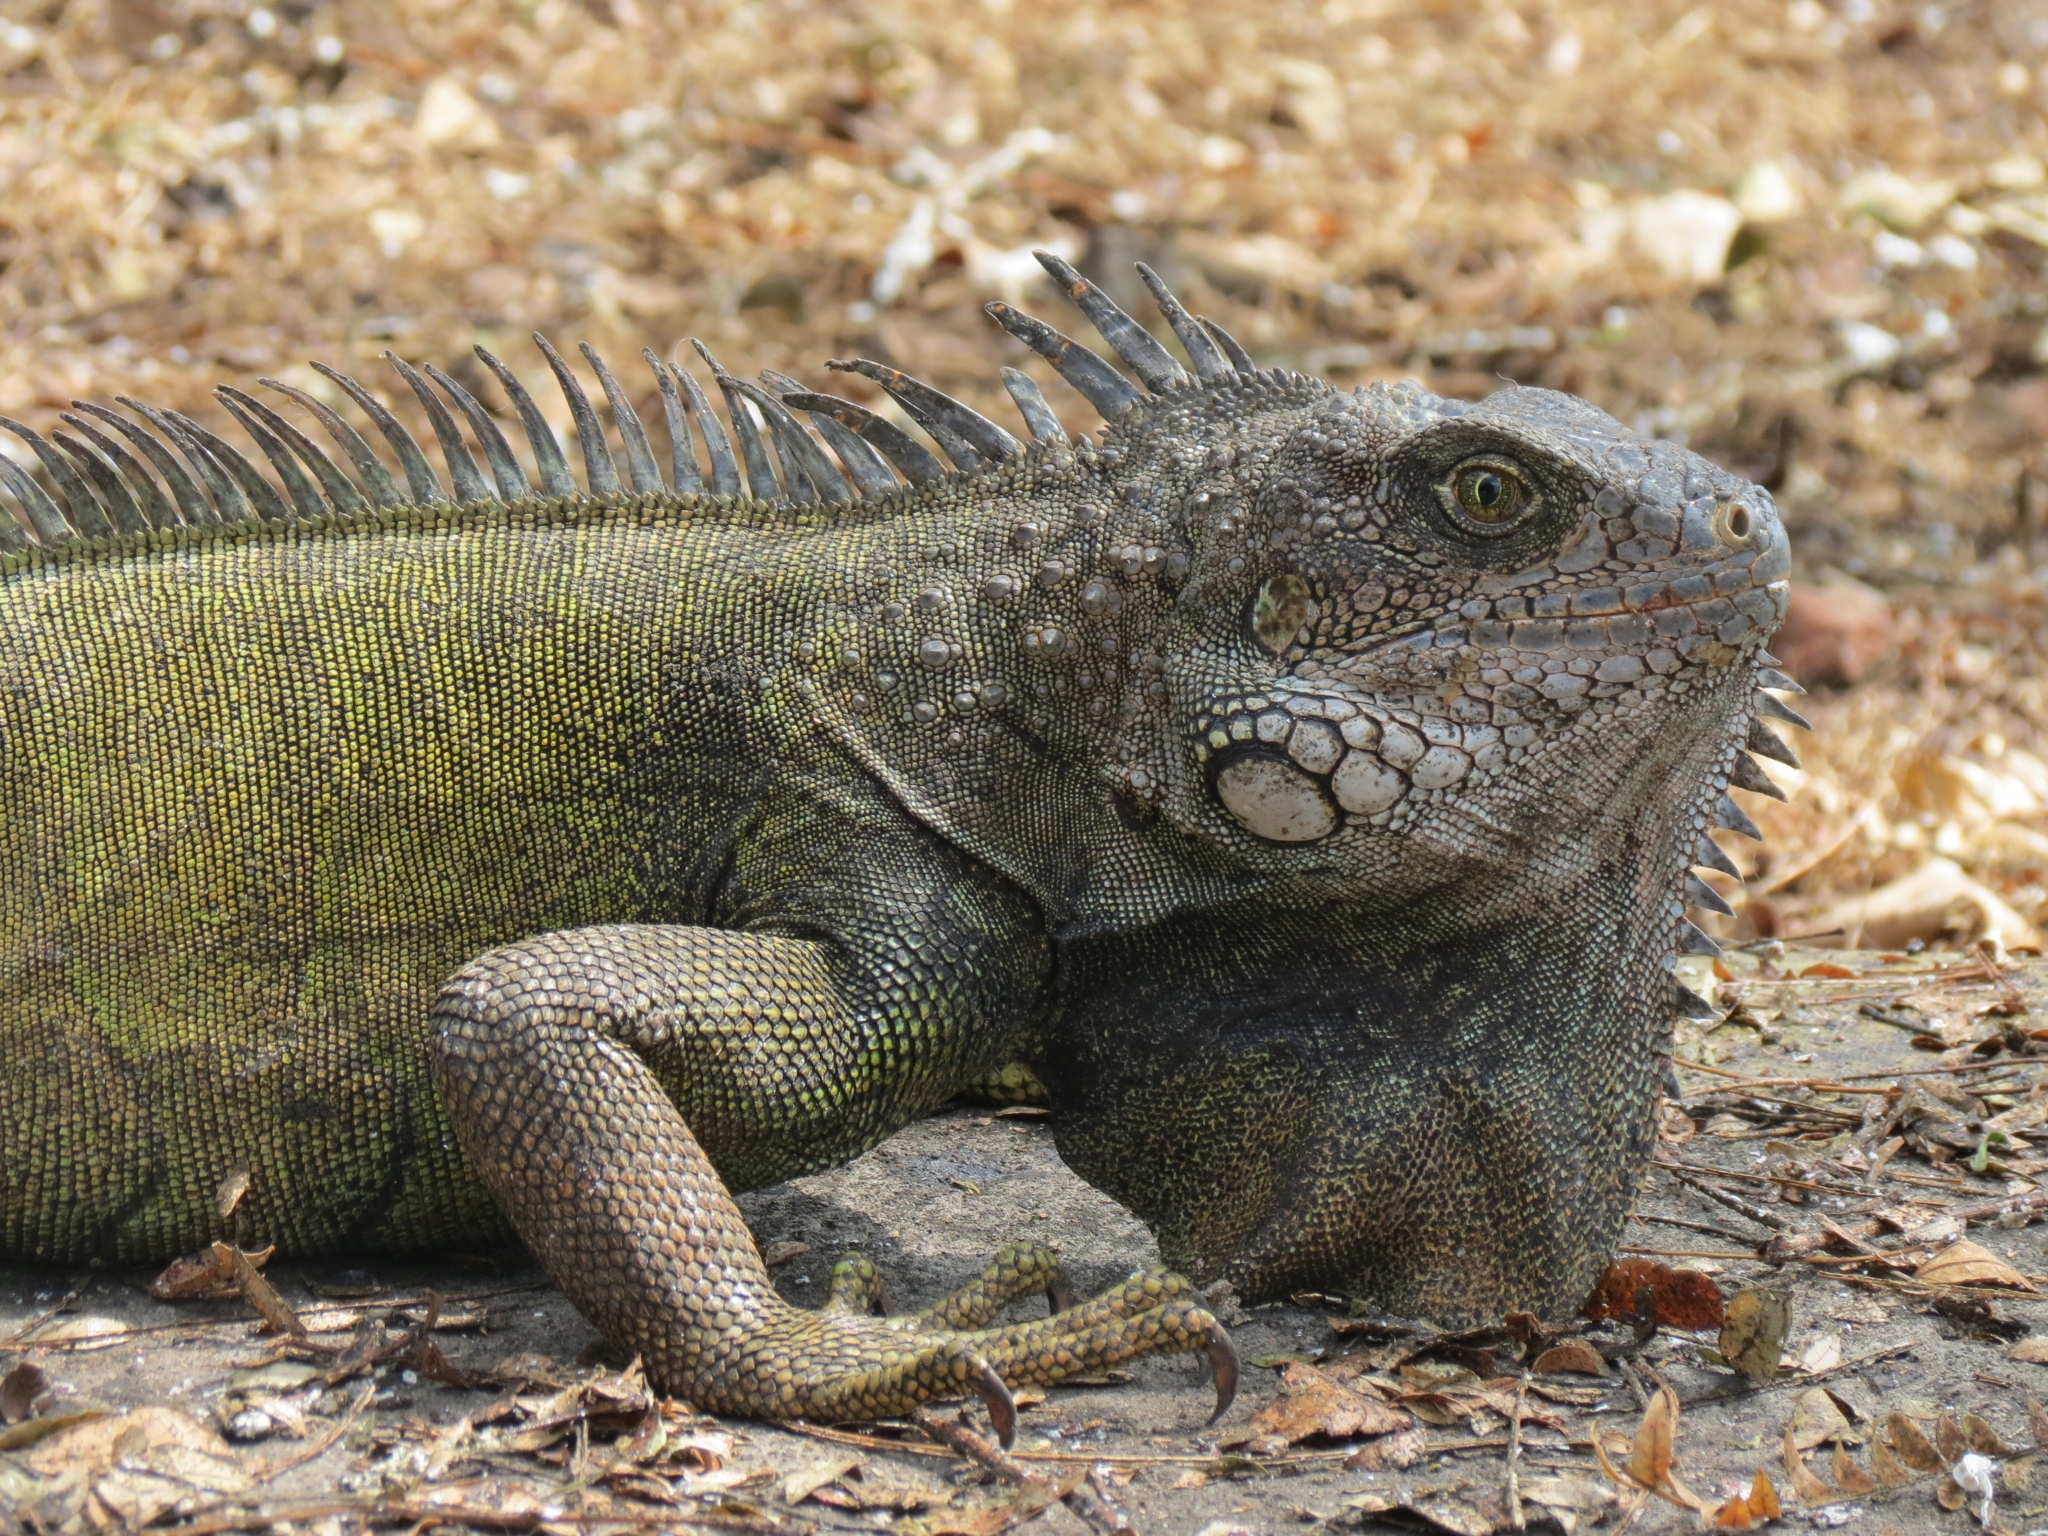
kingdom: Animalia
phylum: Chordata
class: Squamata
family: Iguanidae
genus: Iguana
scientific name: Iguana iguana
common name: Green iguana
